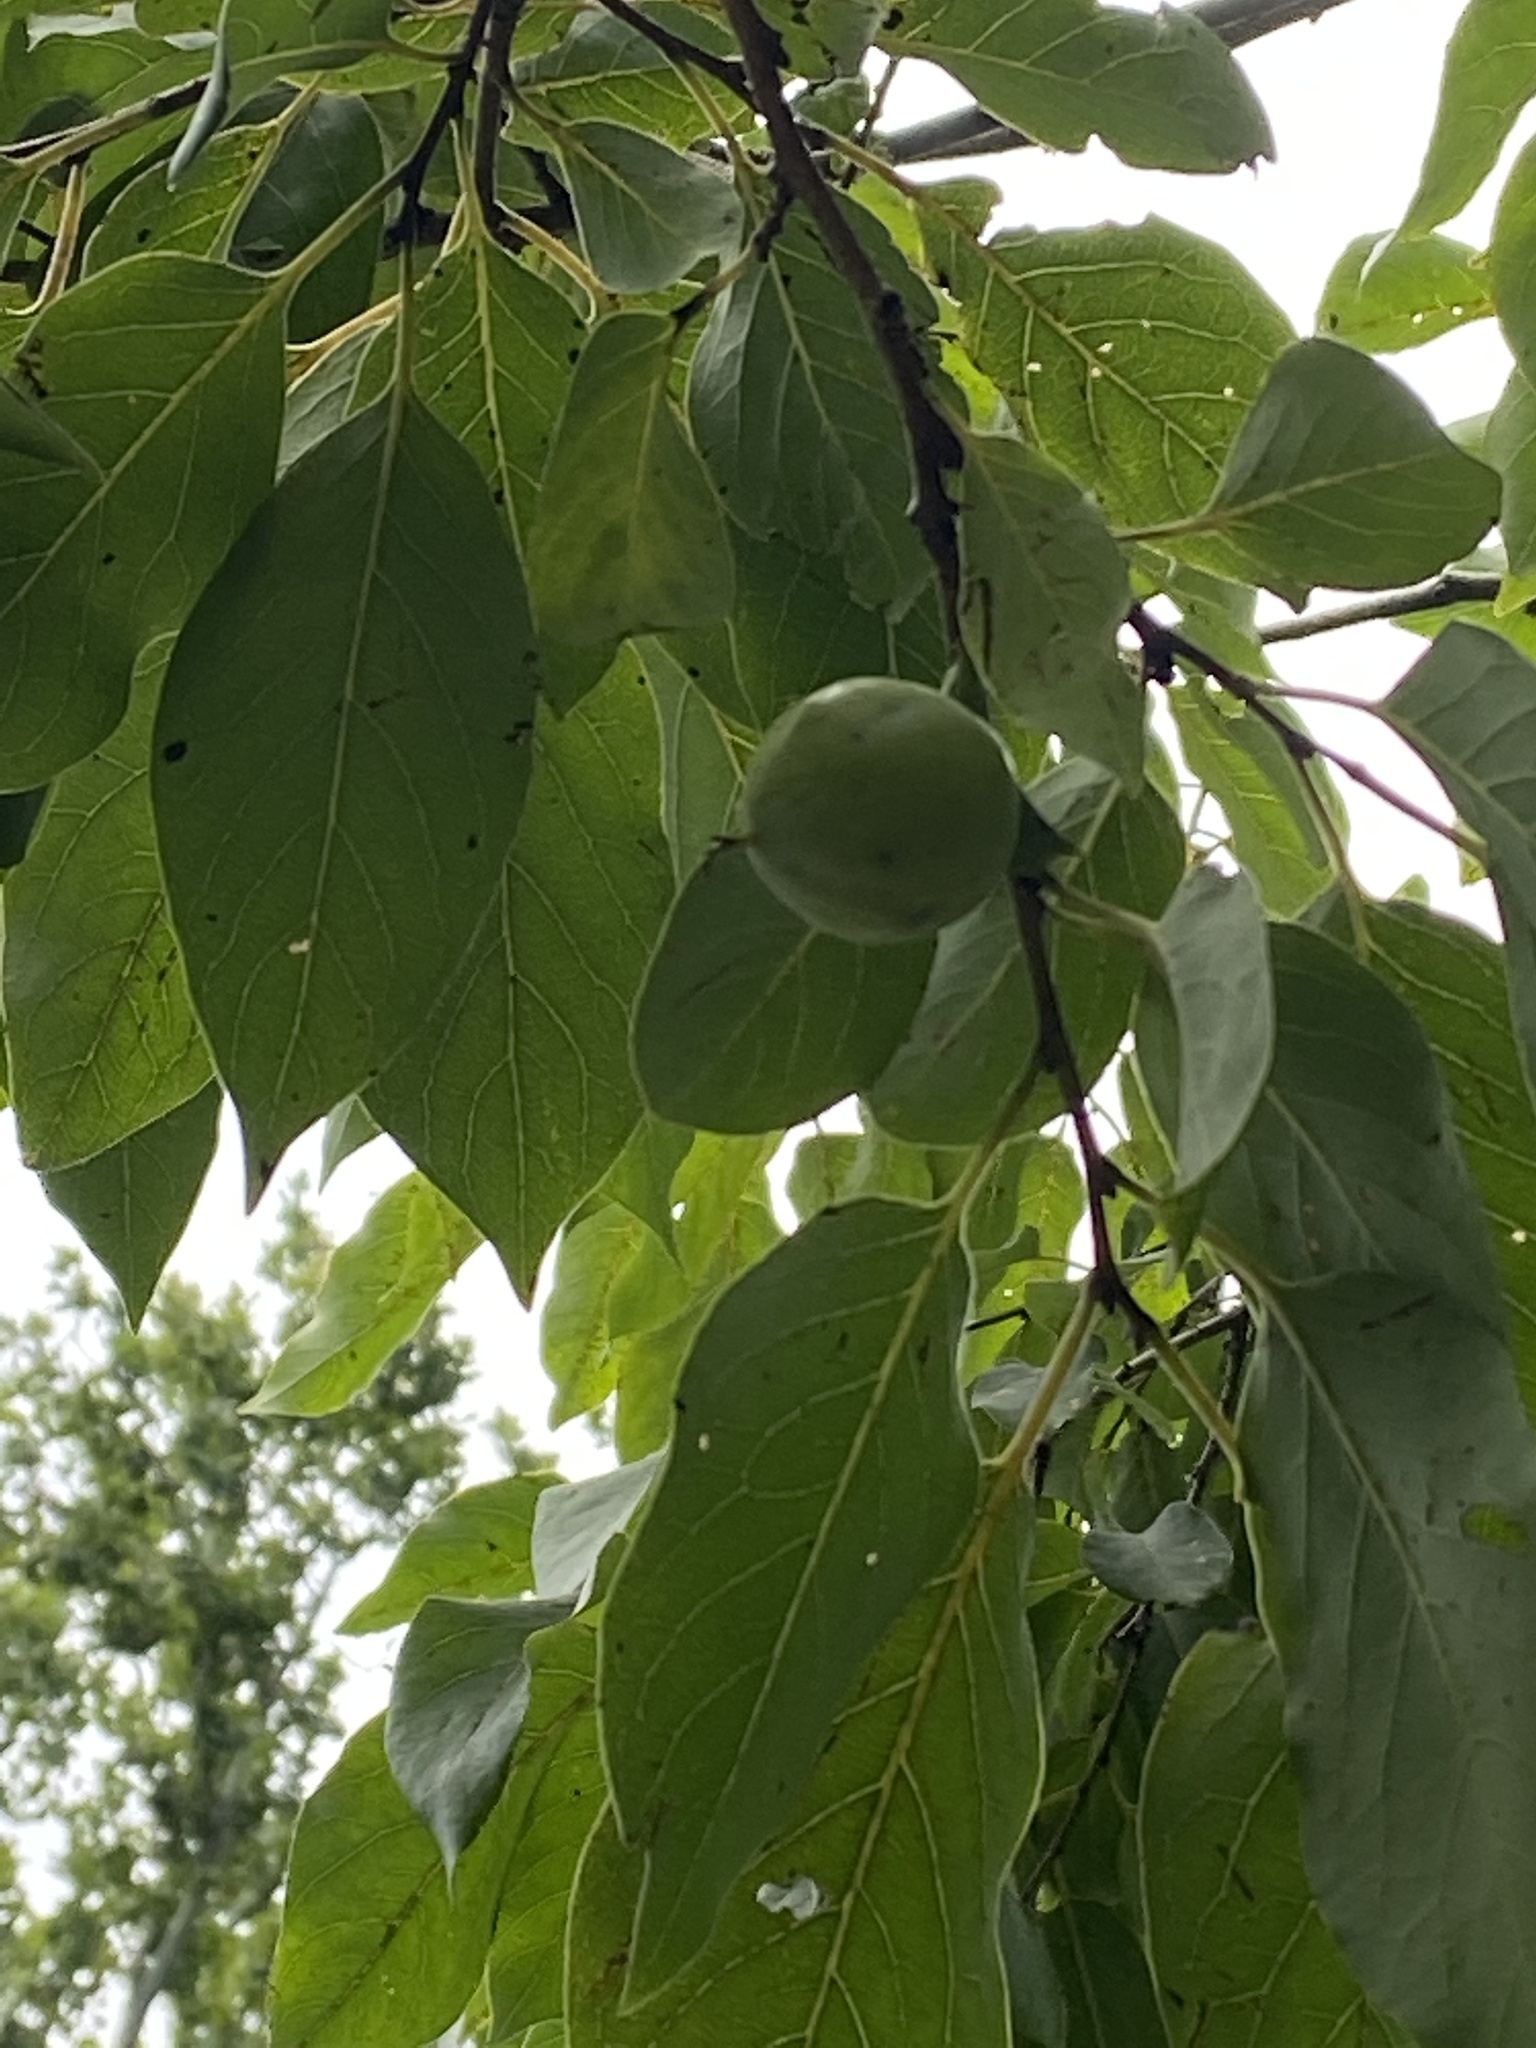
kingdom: Plantae
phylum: Tracheophyta
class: Magnoliopsida
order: Ericales
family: Ebenaceae
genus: Diospyros
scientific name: Diospyros virginiana
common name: Persimmon
